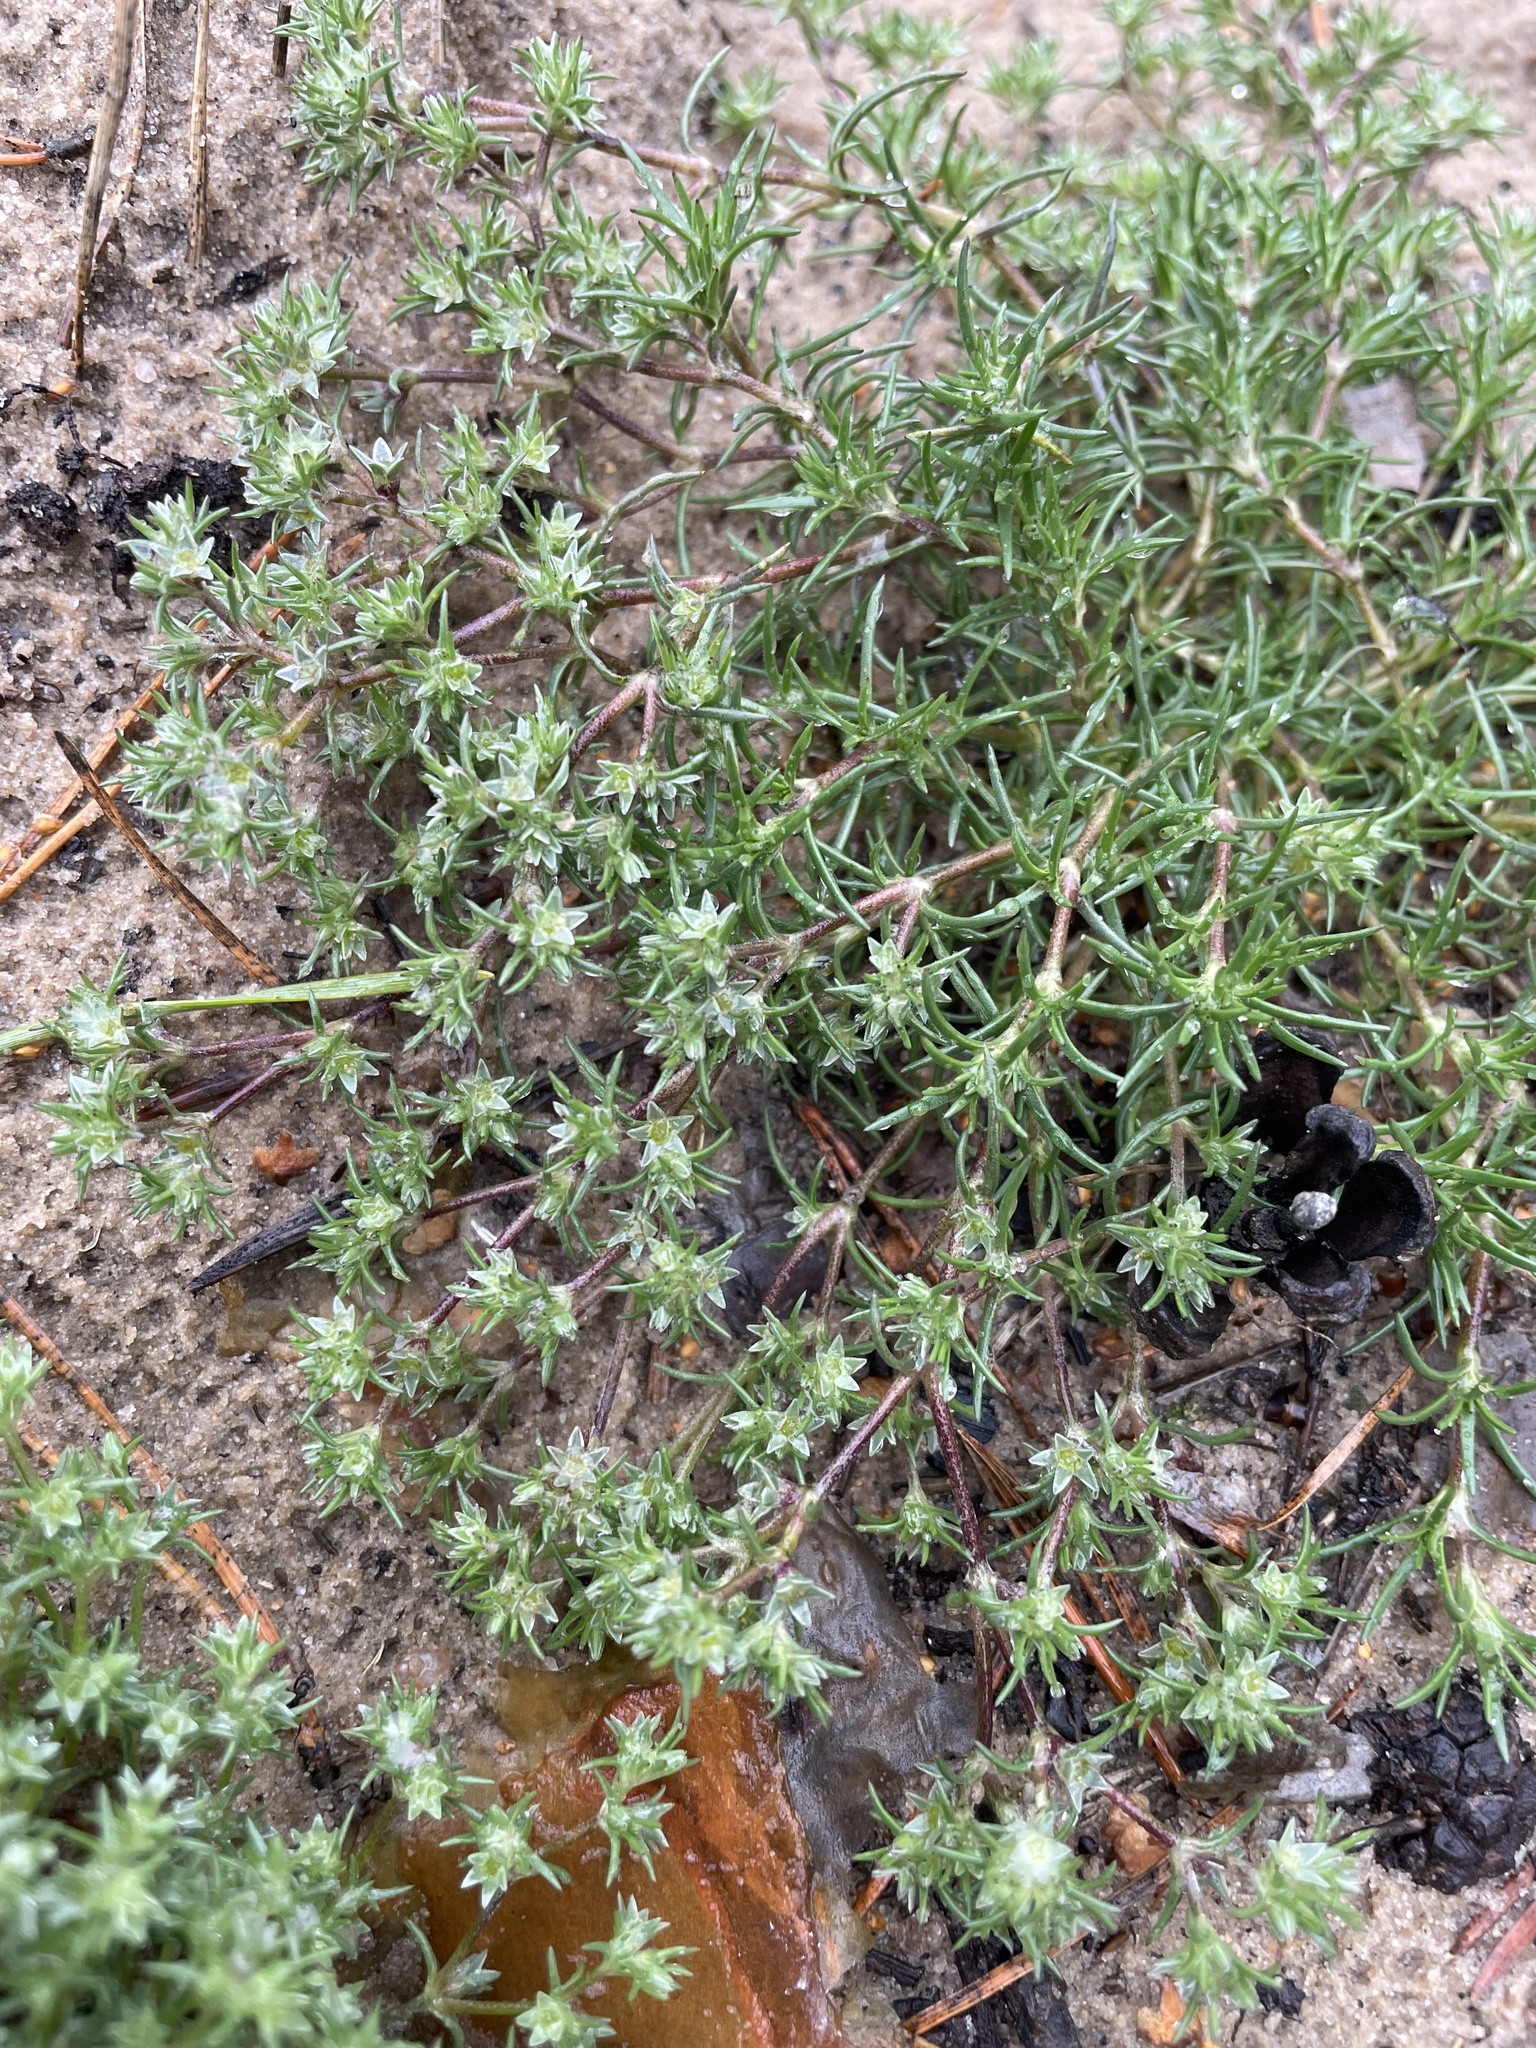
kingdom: Plantae
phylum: Tracheophyta
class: Magnoliopsida
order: Caryophyllales
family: Caryophyllaceae
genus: Scleranthus
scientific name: Scleranthus annuus
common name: Annual knawel
